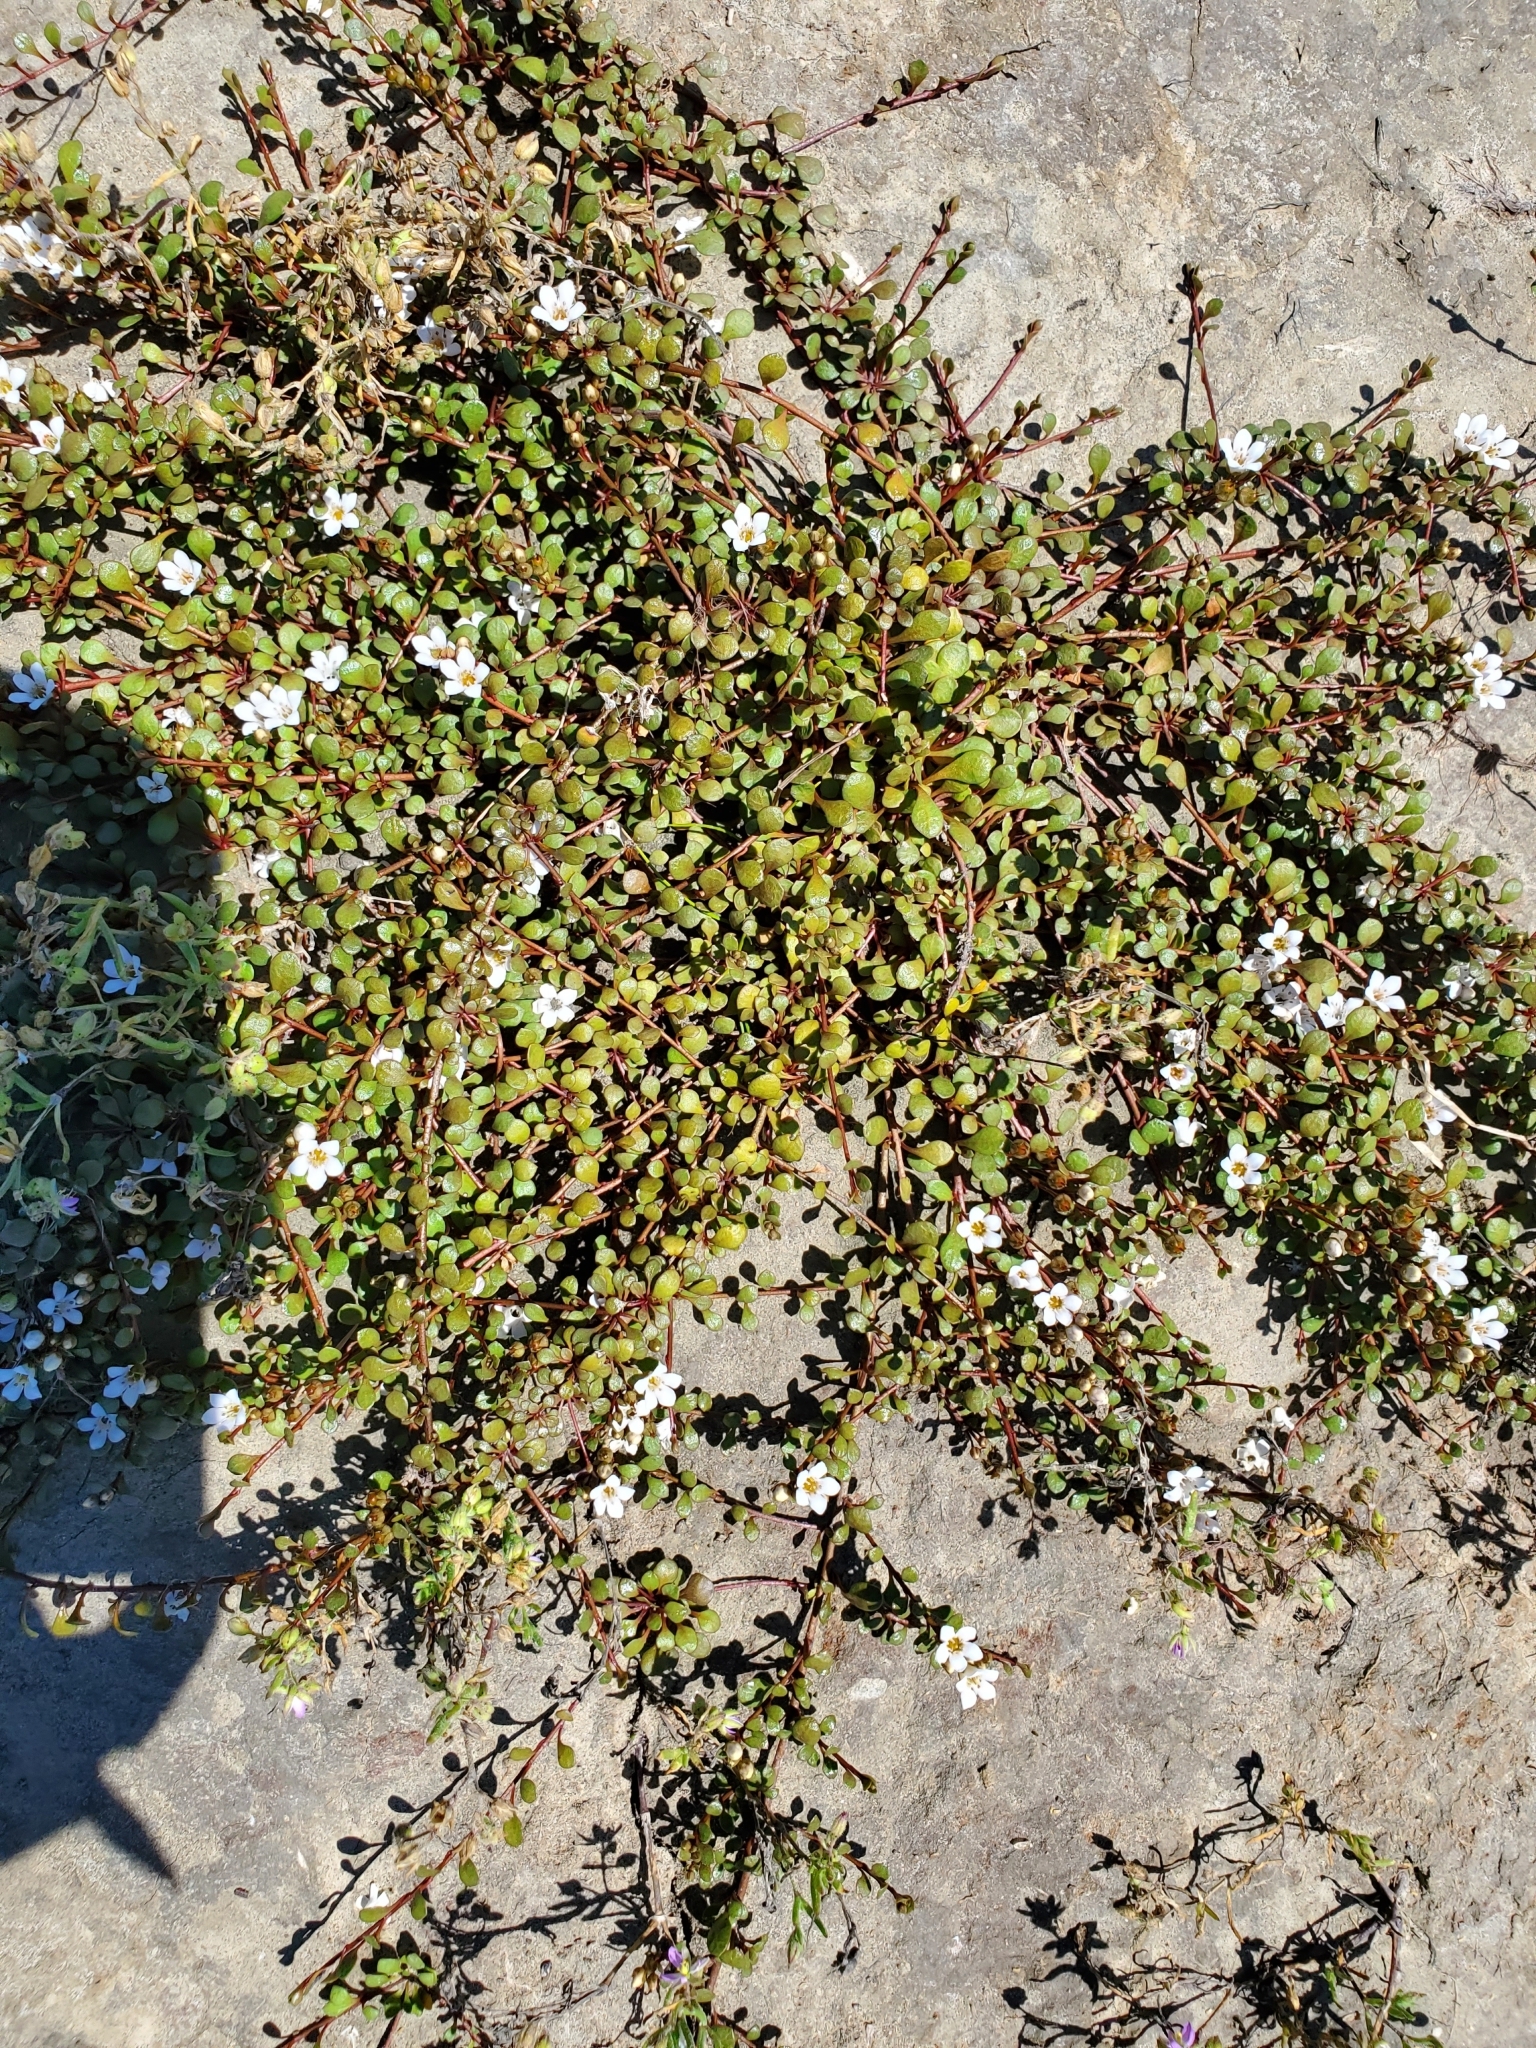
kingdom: Plantae
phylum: Tracheophyta
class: Magnoliopsida
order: Ericales
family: Primulaceae
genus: Samolus
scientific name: Samolus repens
